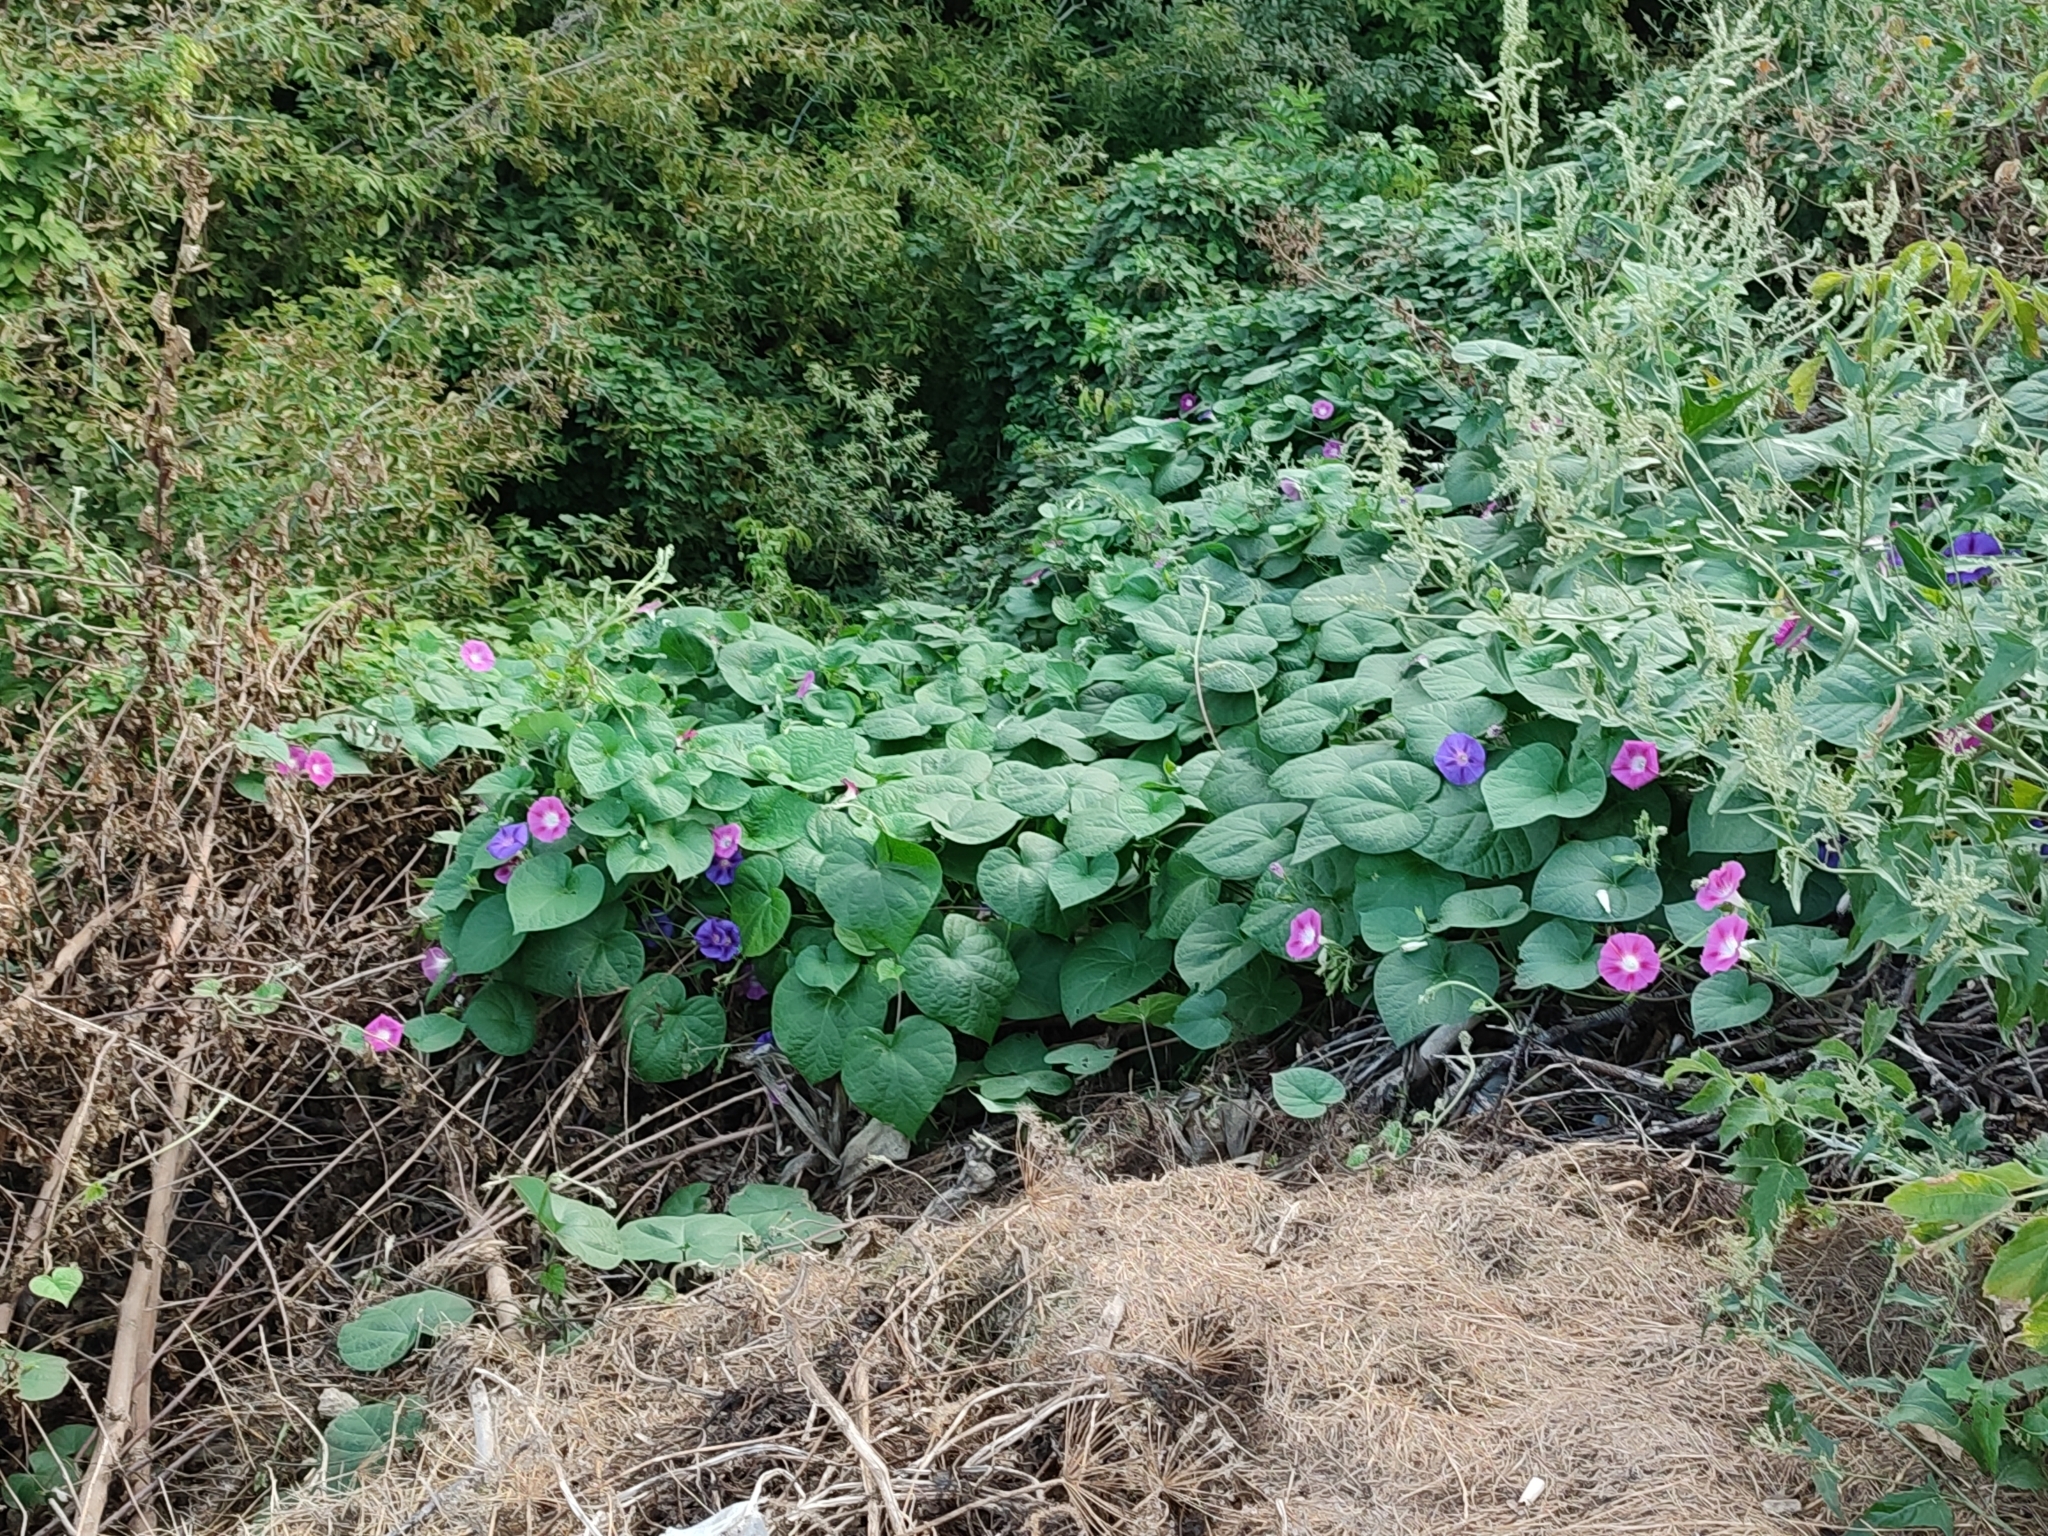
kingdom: Plantae
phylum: Tracheophyta
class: Magnoliopsida
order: Solanales
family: Convolvulaceae
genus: Ipomoea
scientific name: Ipomoea purpurea
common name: Common morning-glory
